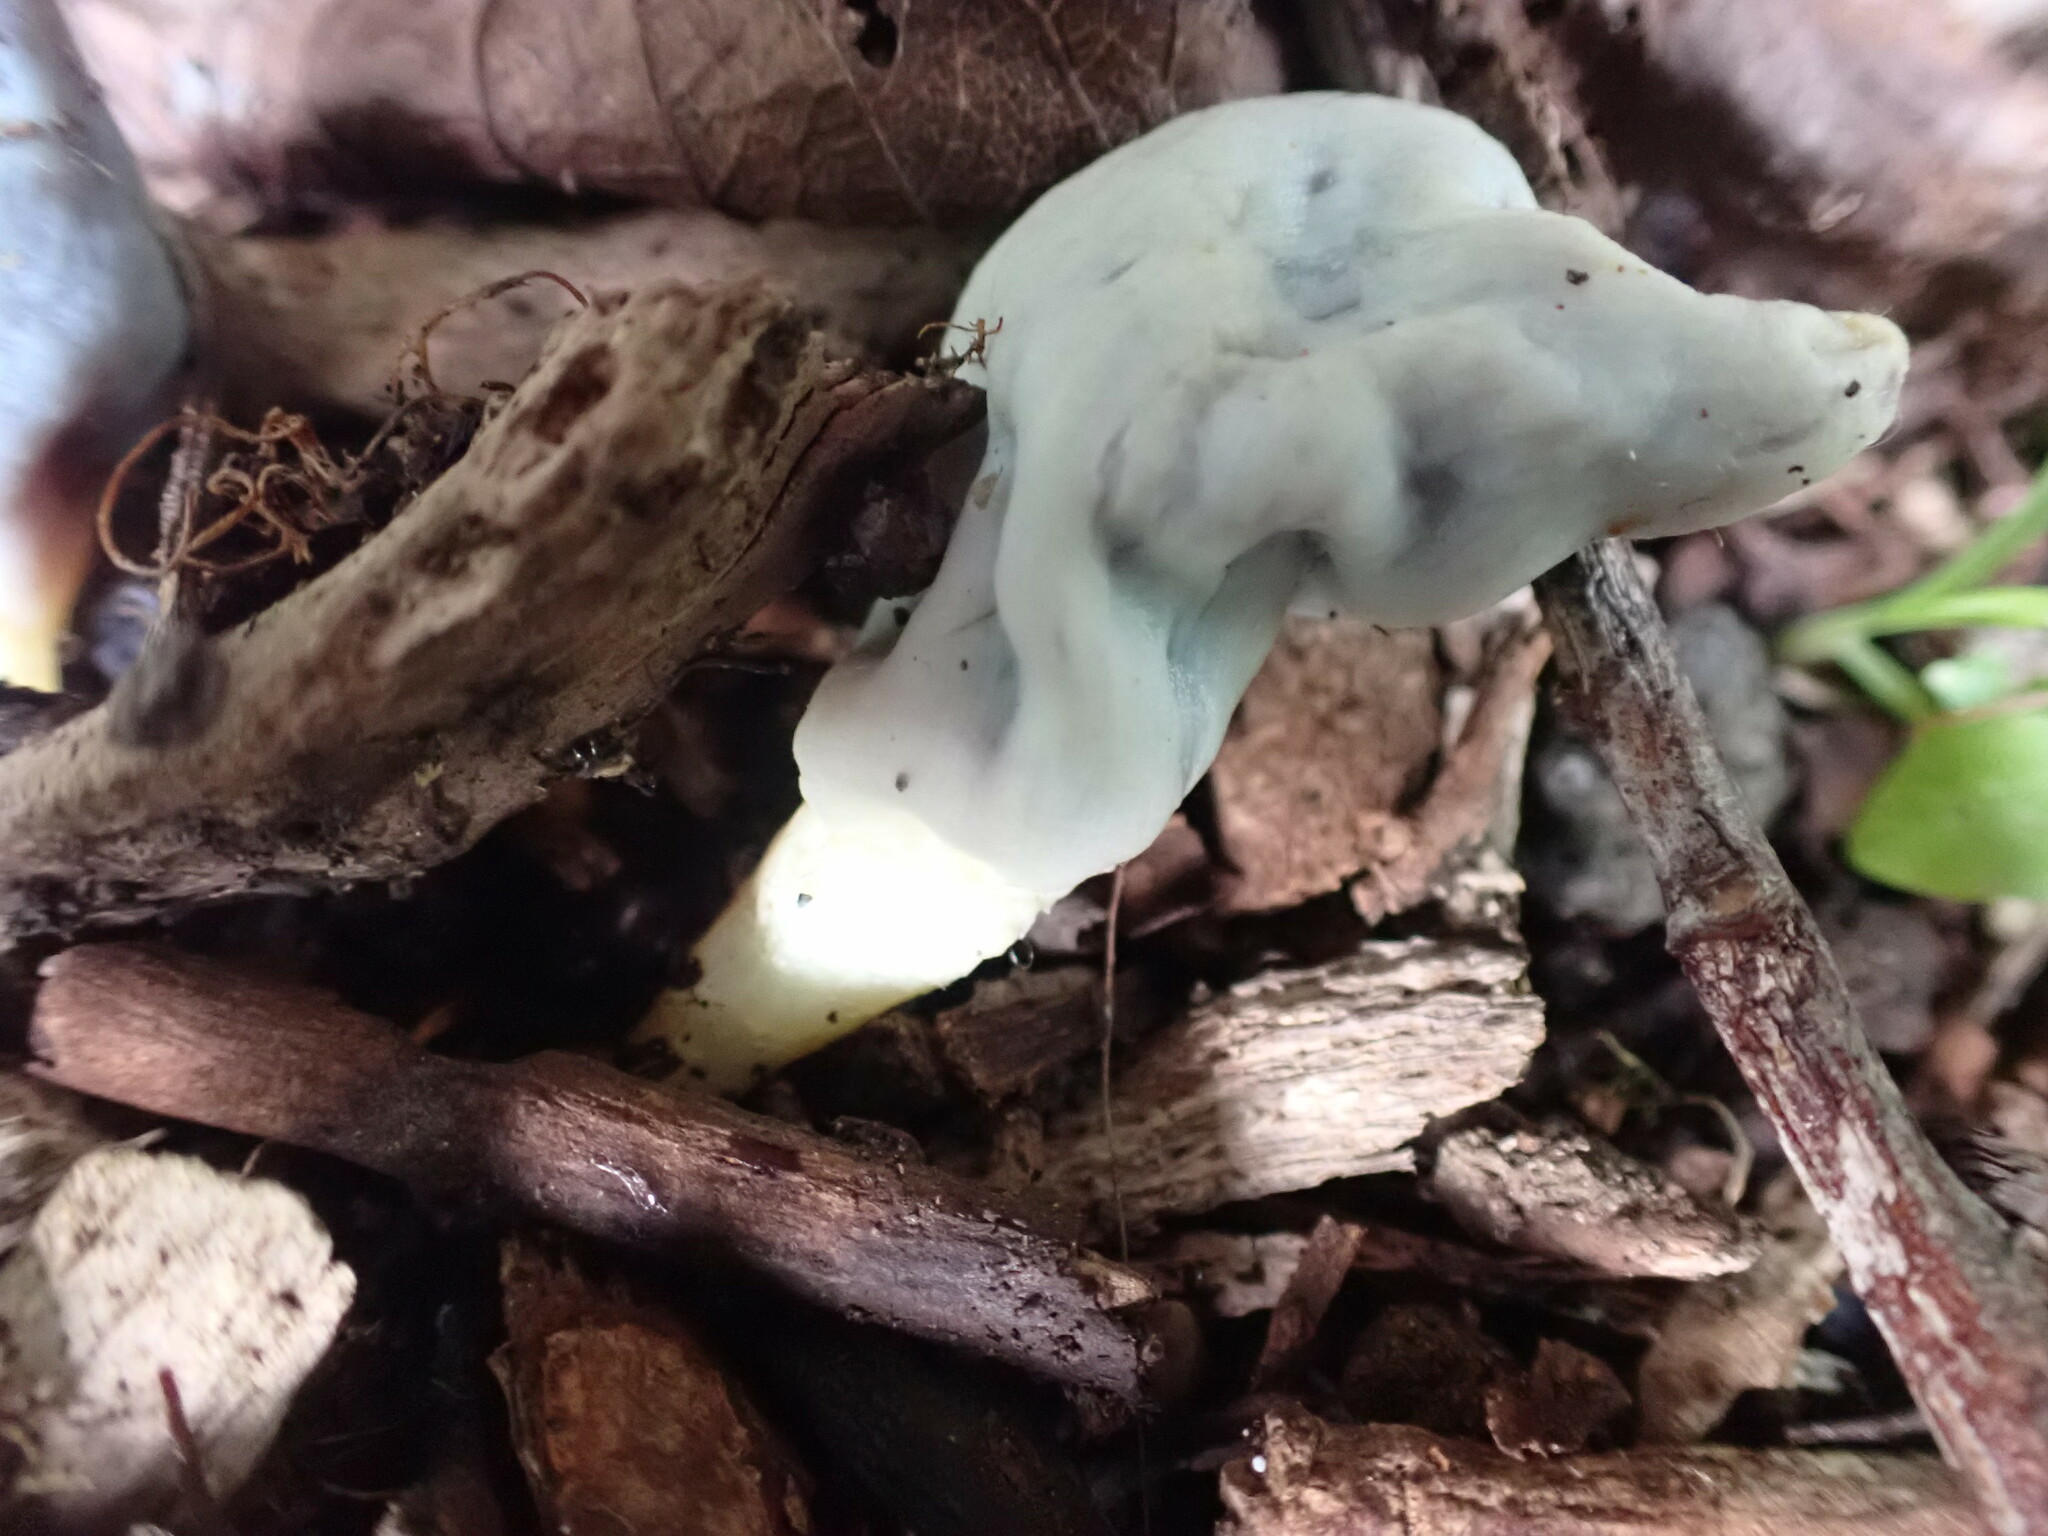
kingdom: Fungi
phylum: Basidiomycota
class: Agaricomycetes
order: Agaricales
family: Agaricaceae
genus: Clavogaster
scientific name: Clavogaster virescens
